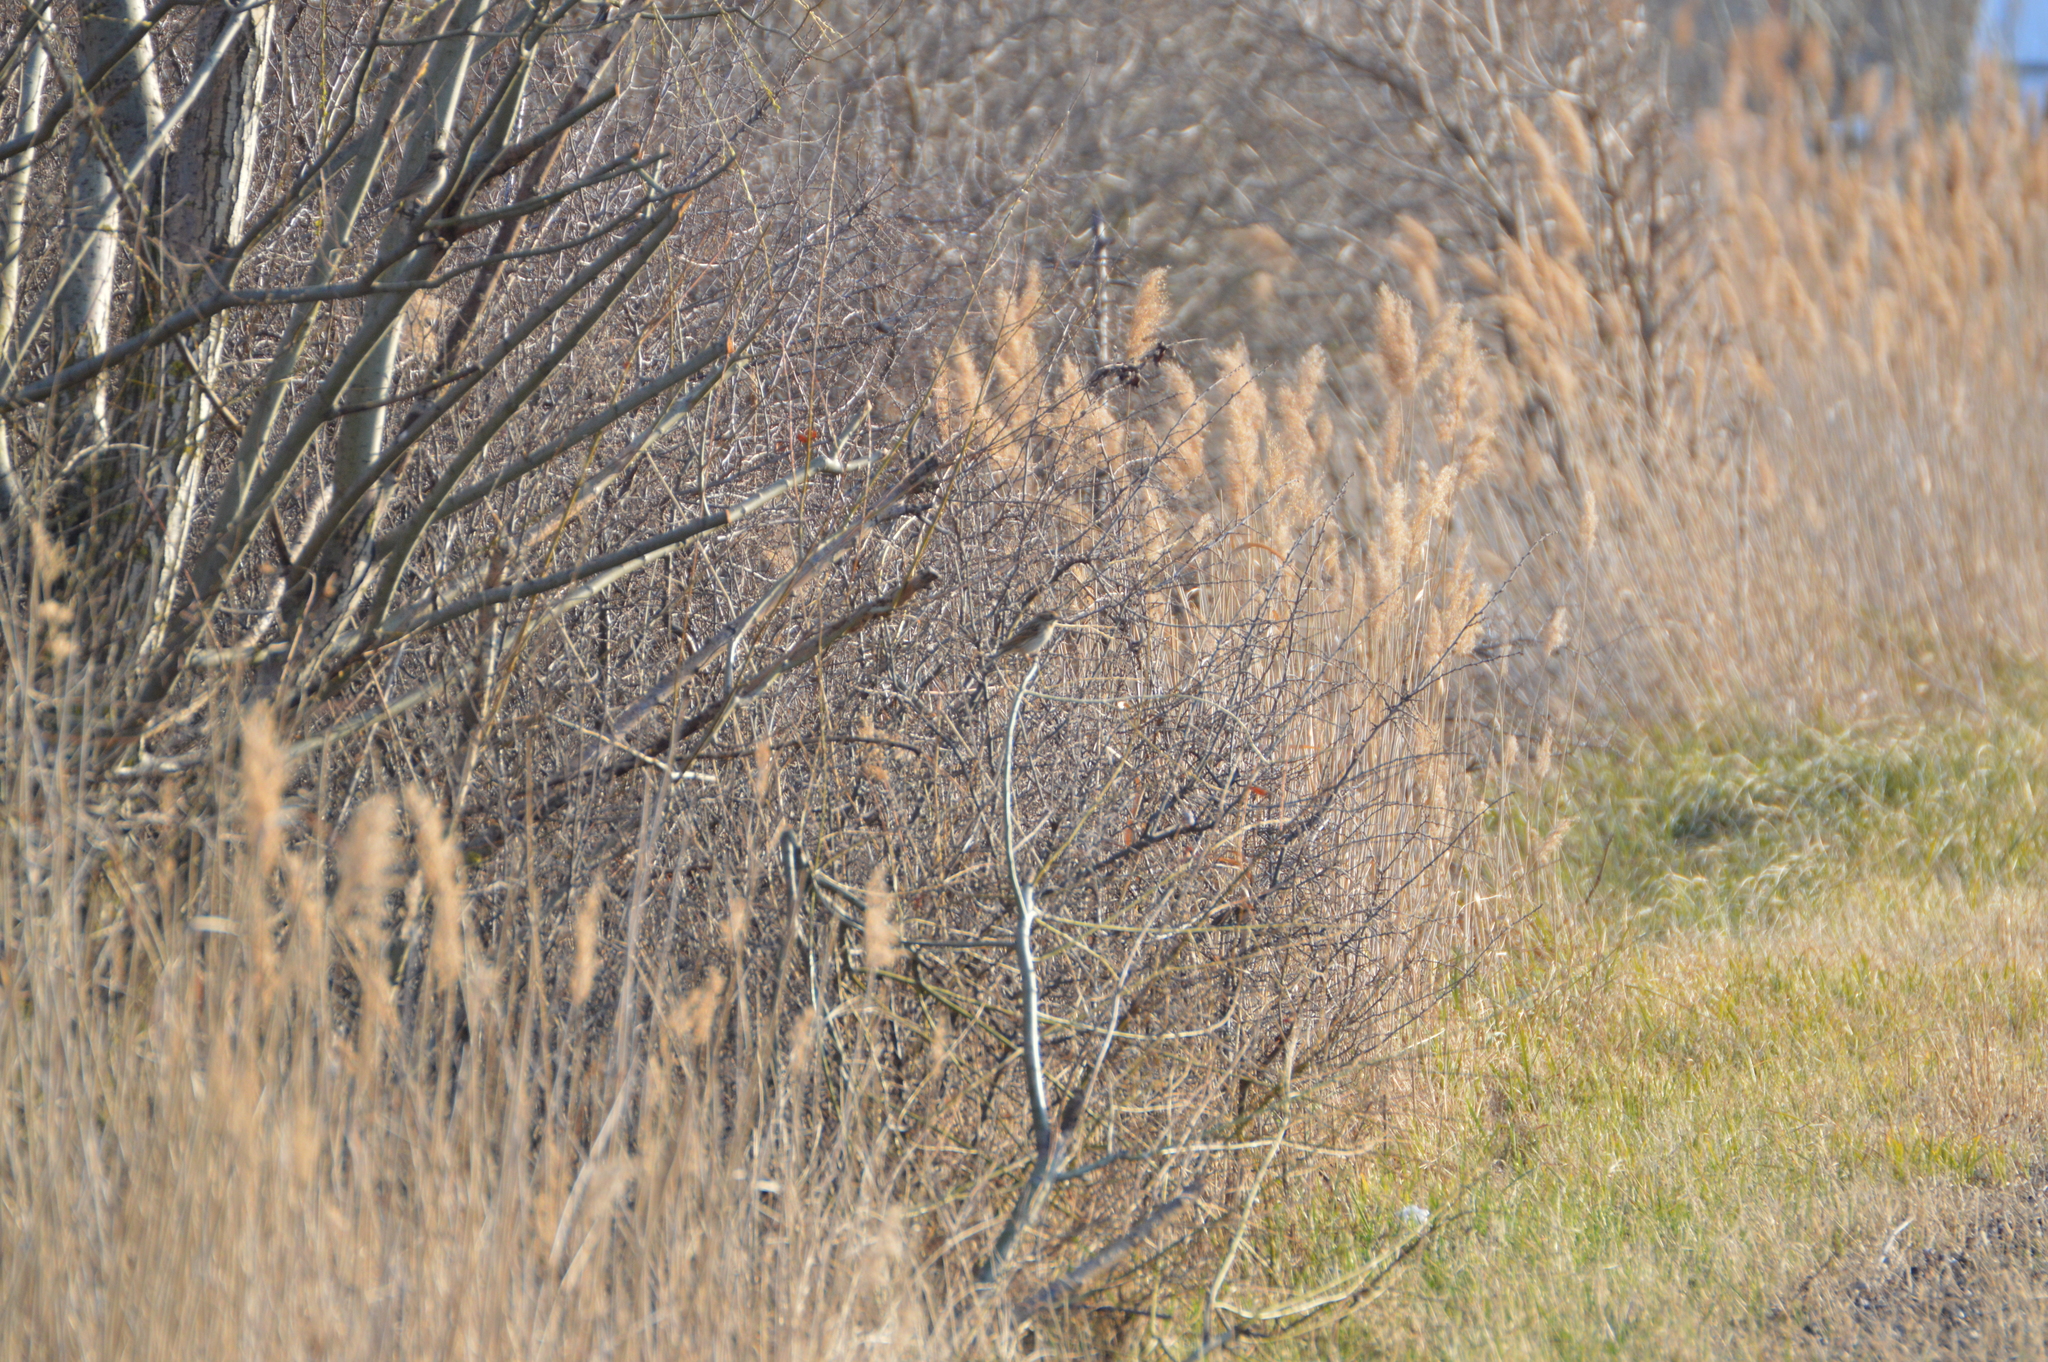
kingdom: Animalia
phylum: Chordata
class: Aves
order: Passeriformes
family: Emberizidae
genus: Emberiza
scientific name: Emberiza schoeniclus
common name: Reed bunting
